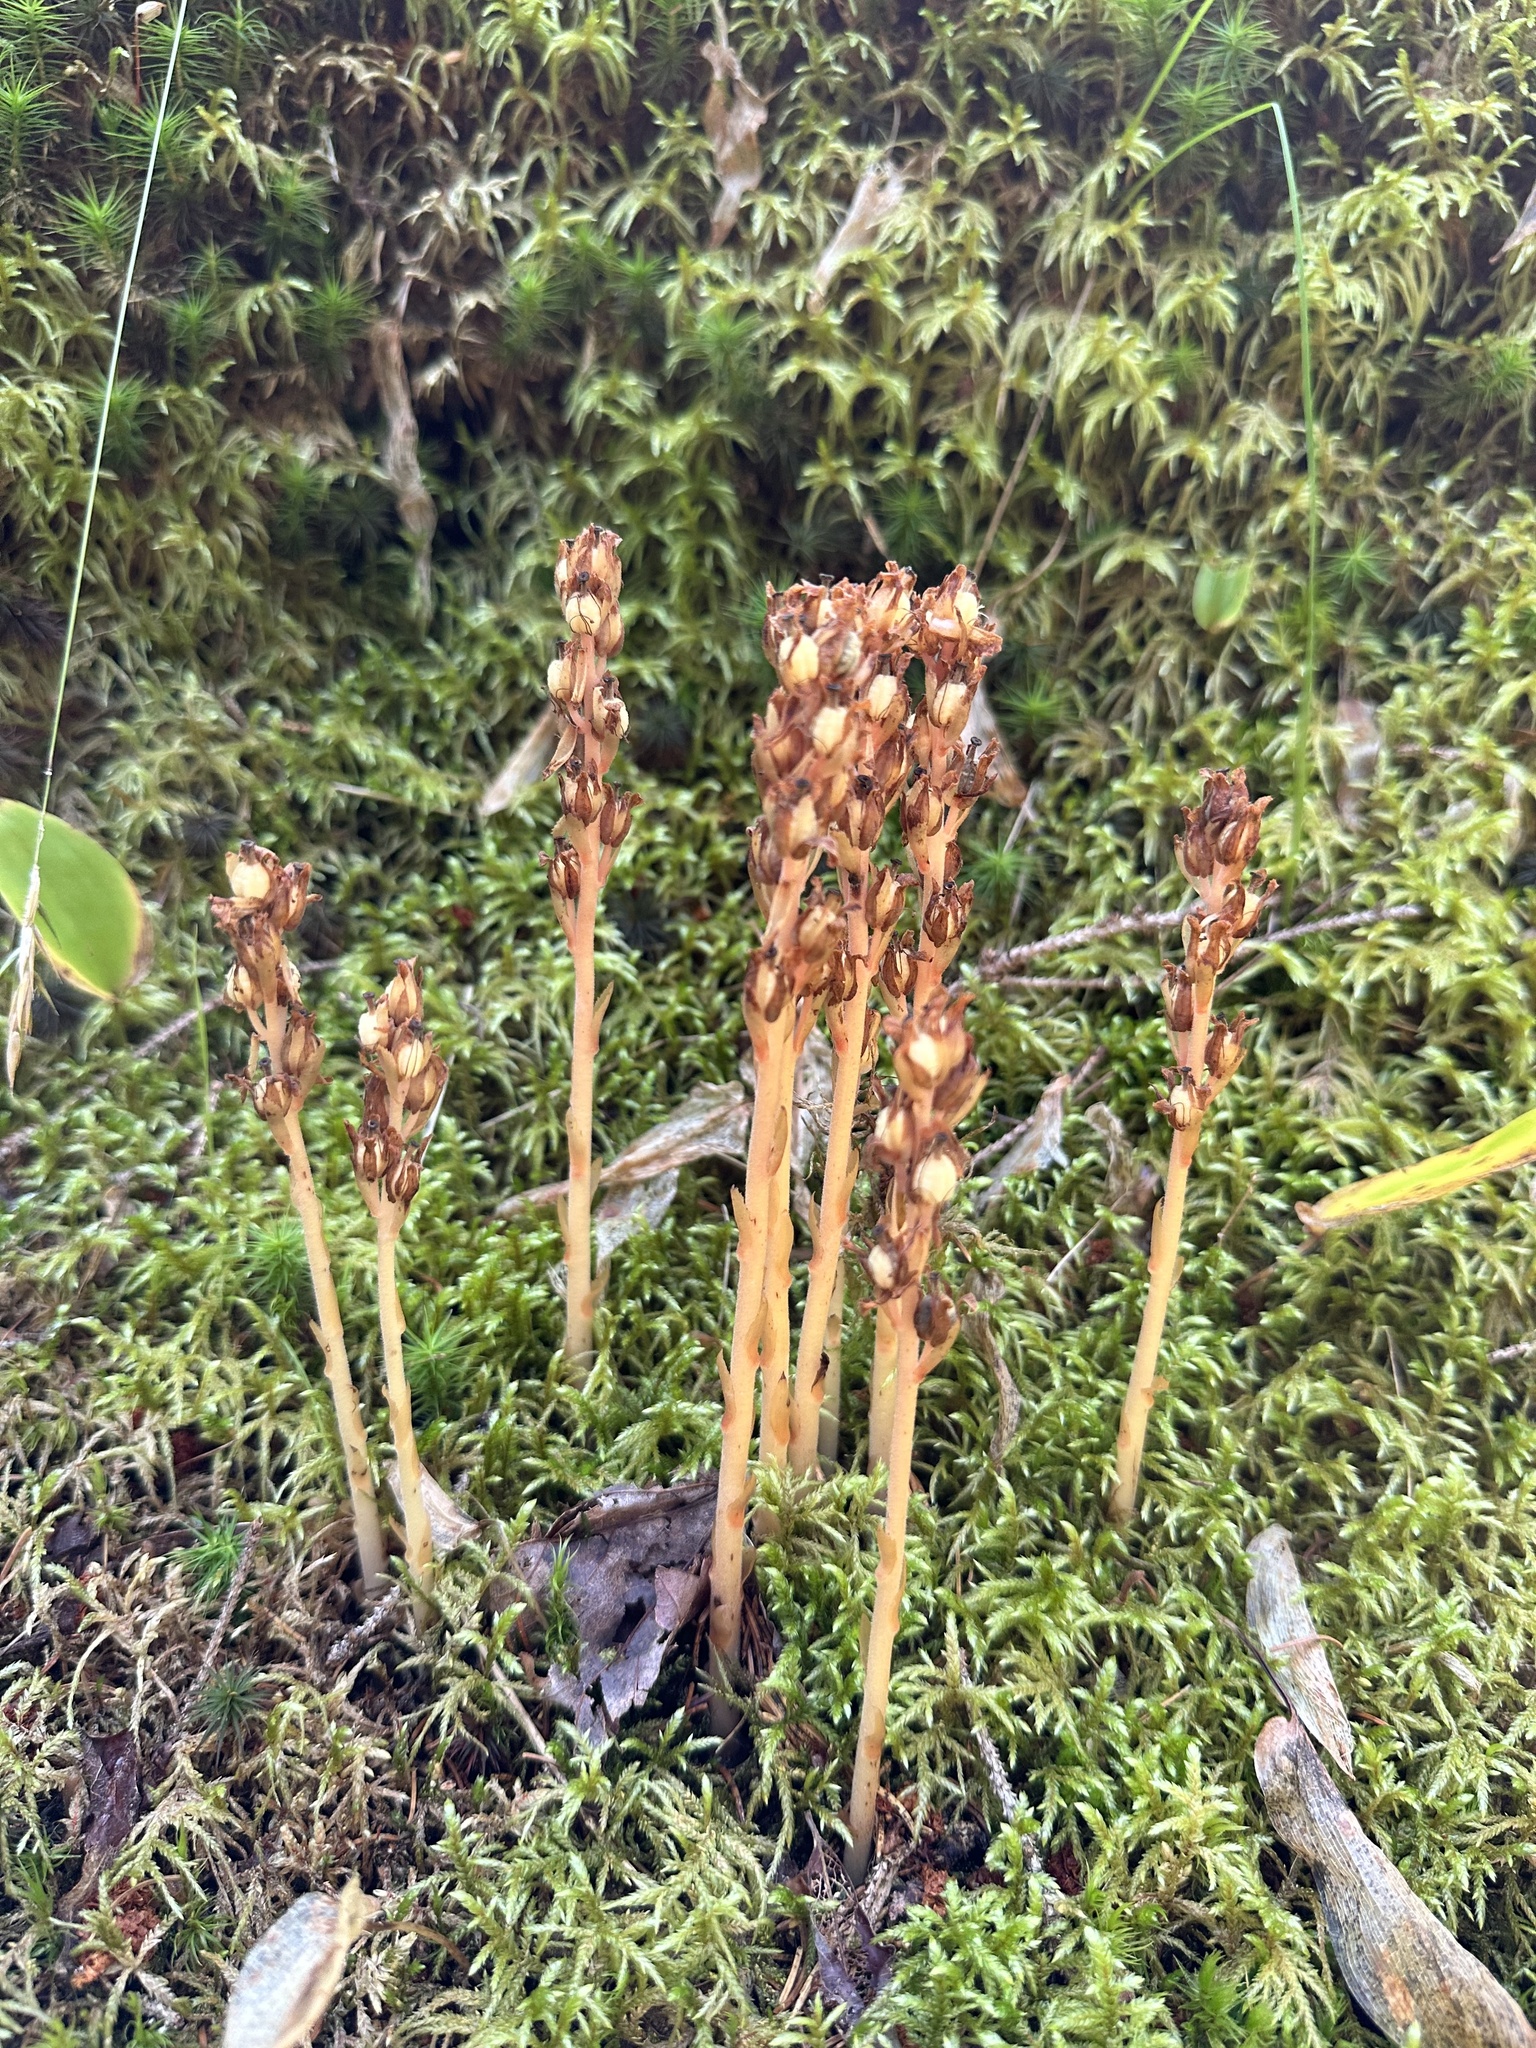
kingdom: Plantae
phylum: Tracheophyta
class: Magnoliopsida
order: Ericales
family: Ericaceae
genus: Hypopitys
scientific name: Hypopitys monotropa
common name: Yellow bird's-nest
